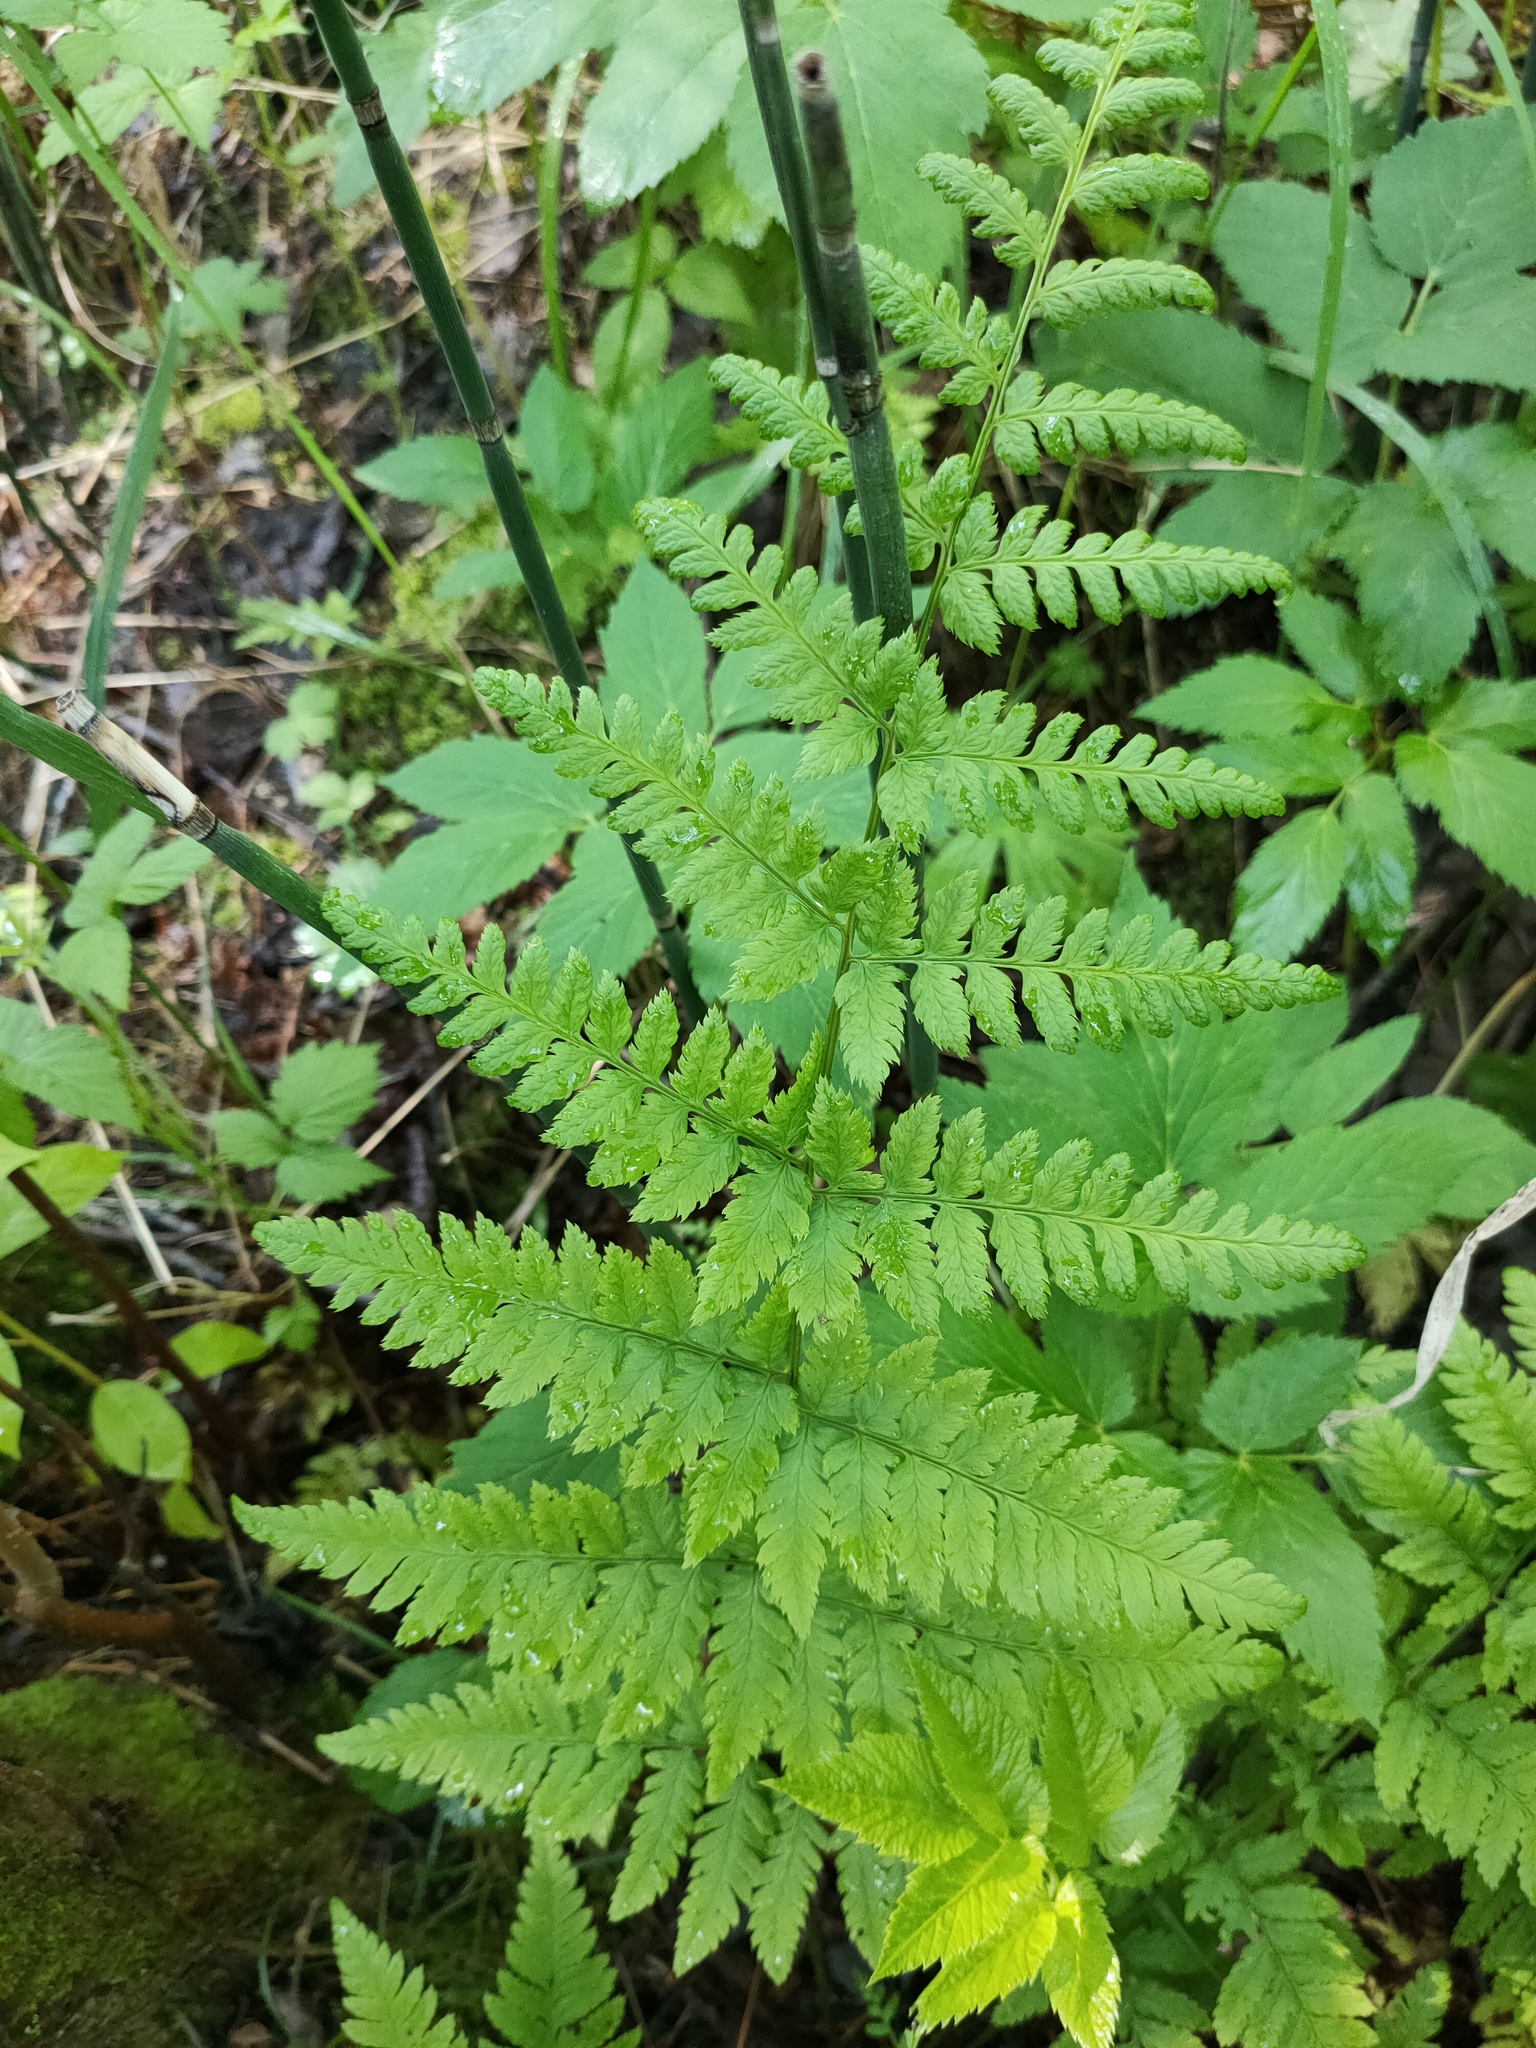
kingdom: Plantae
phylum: Tracheophyta
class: Polypodiopsida
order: Polypodiales
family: Dryopteridaceae
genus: Dryopteris
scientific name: Dryopteris carthusiana
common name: Narrow buckler-fern
